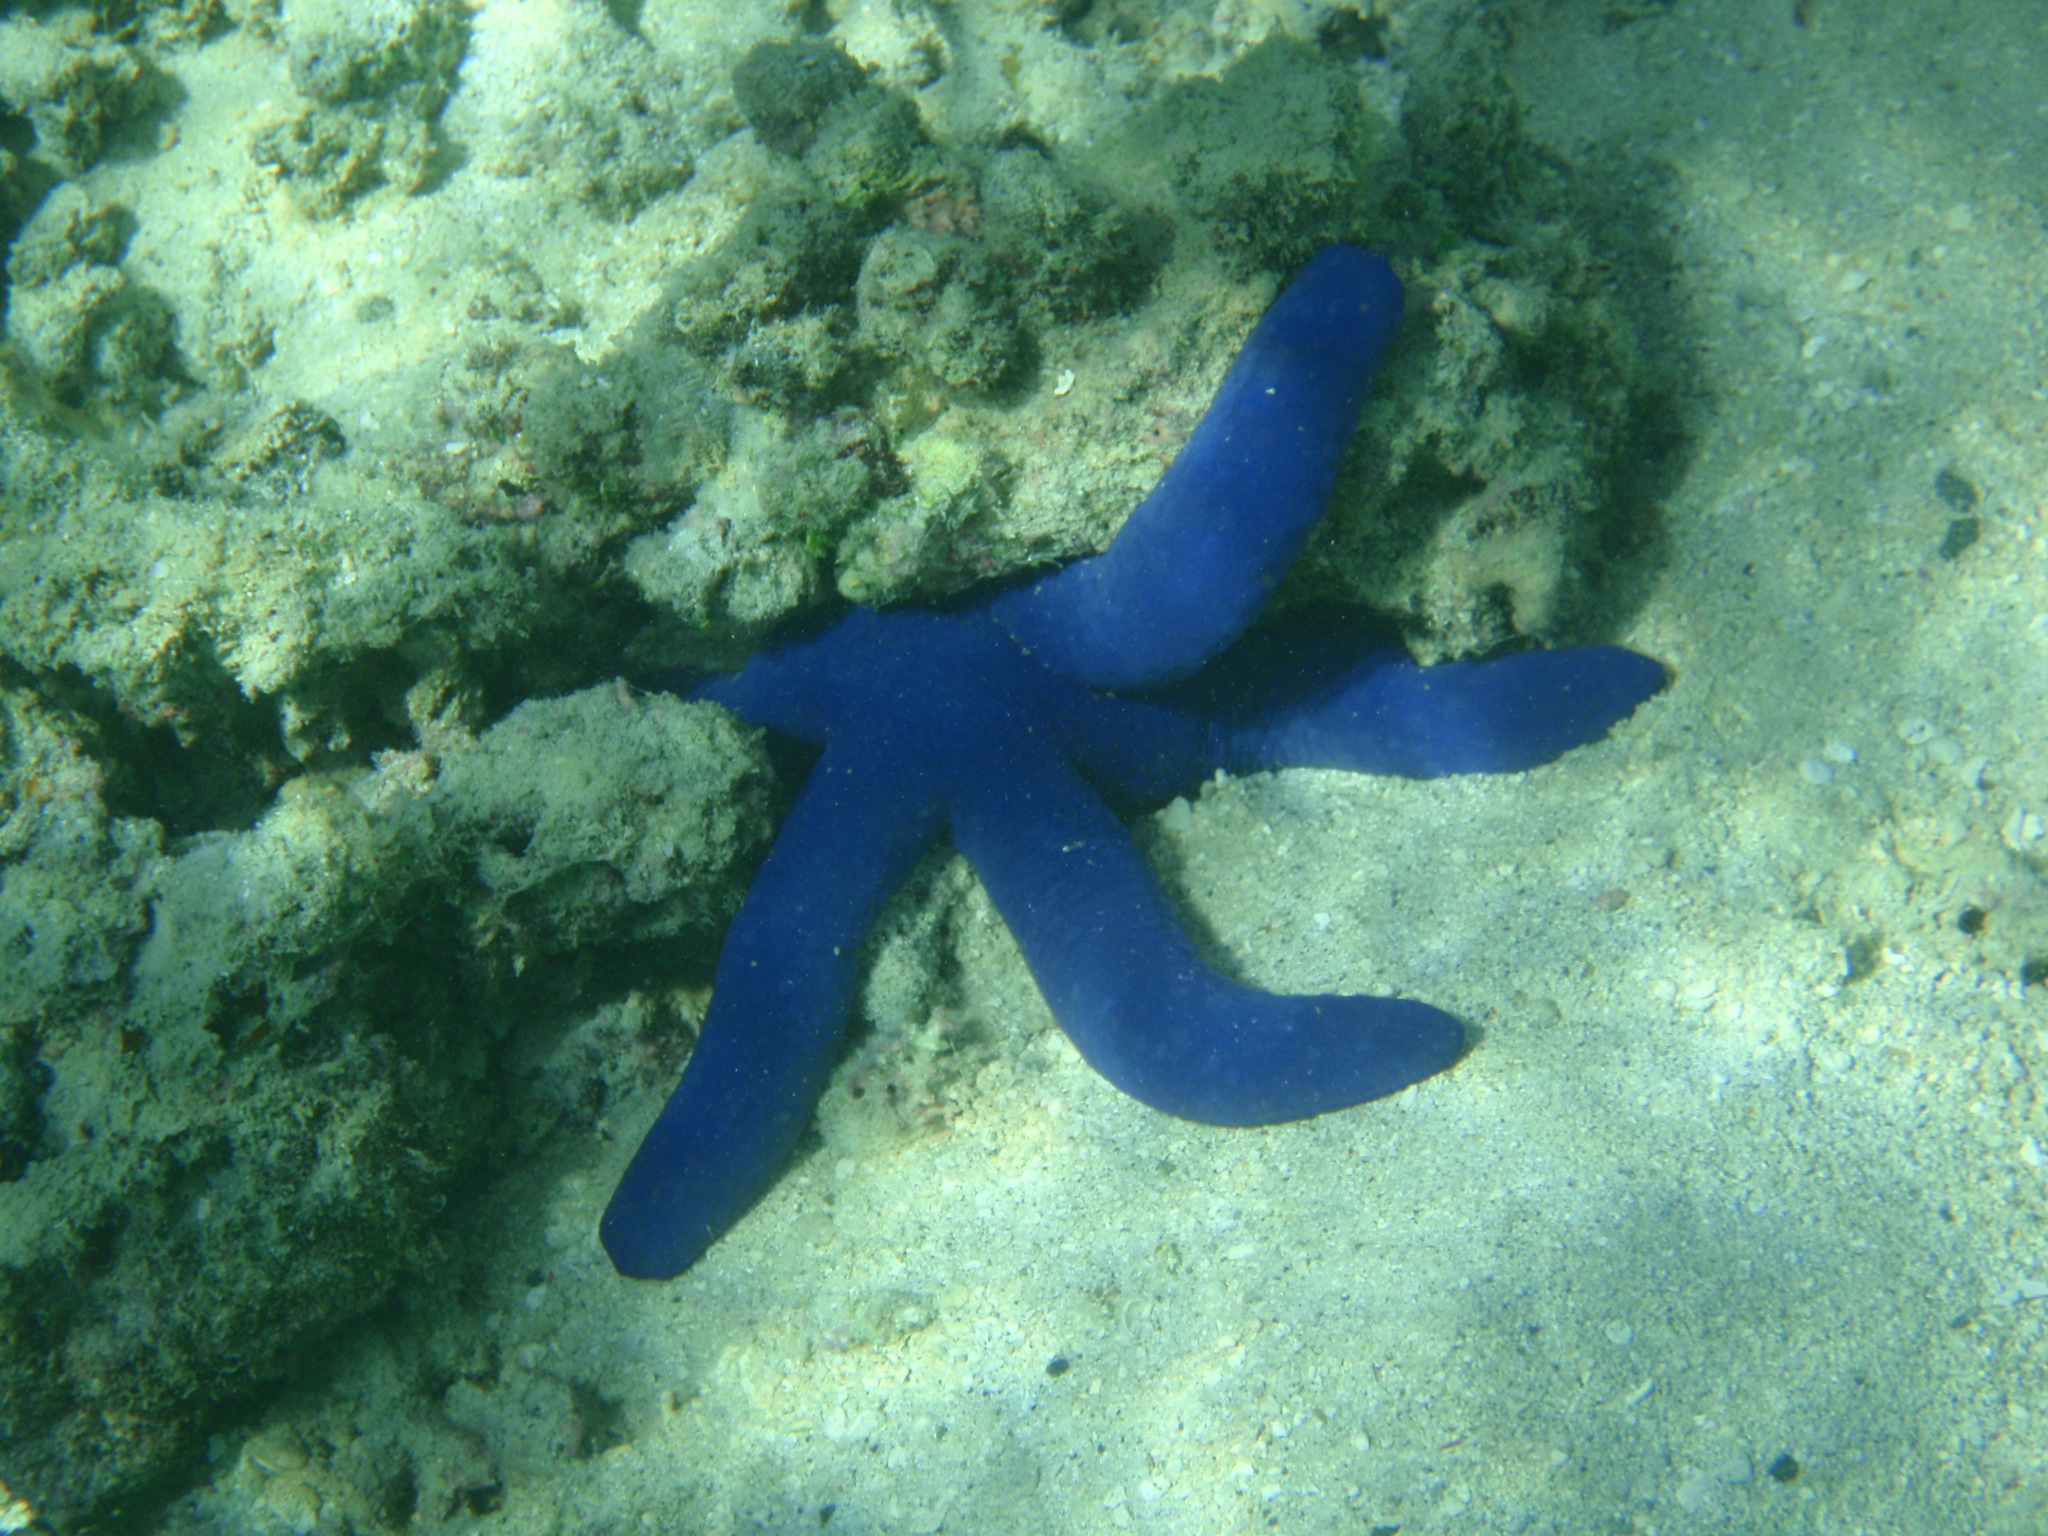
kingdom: Animalia
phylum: Echinodermata
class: Asteroidea
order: Valvatida
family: Ophidiasteridae
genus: Linckia
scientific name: Linckia laevigata
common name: Azure sea star
